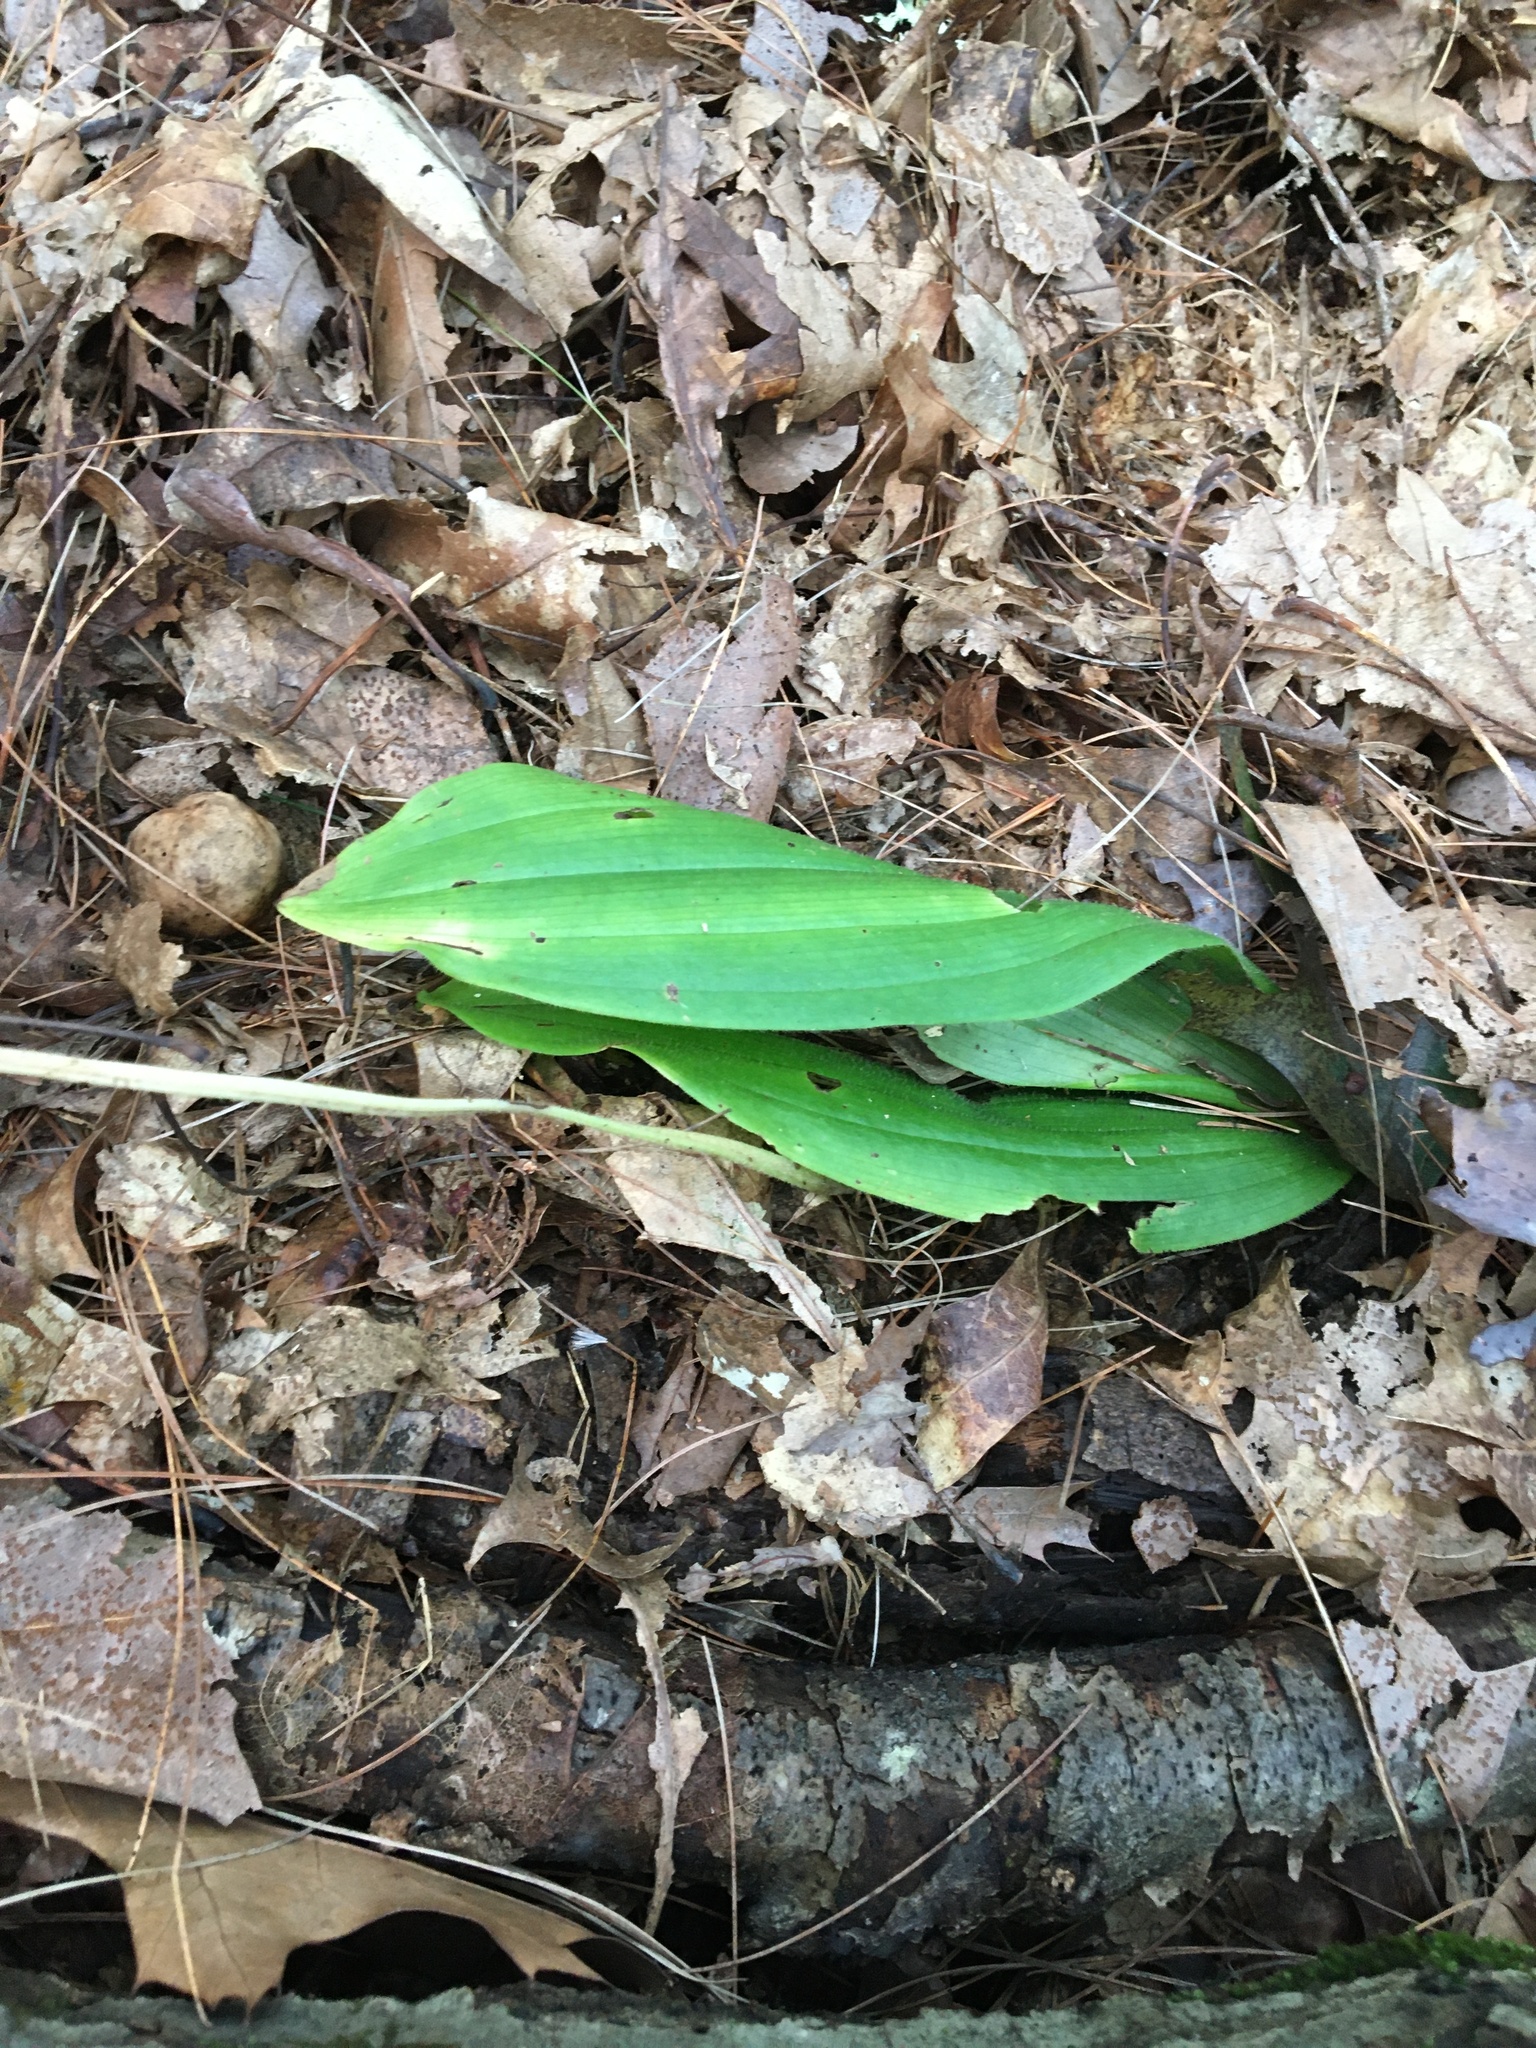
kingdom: Plantae
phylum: Tracheophyta
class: Liliopsida
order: Asparagales
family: Orchidaceae
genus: Cypripedium
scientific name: Cypripedium acaule
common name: Pink lady's-slipper
